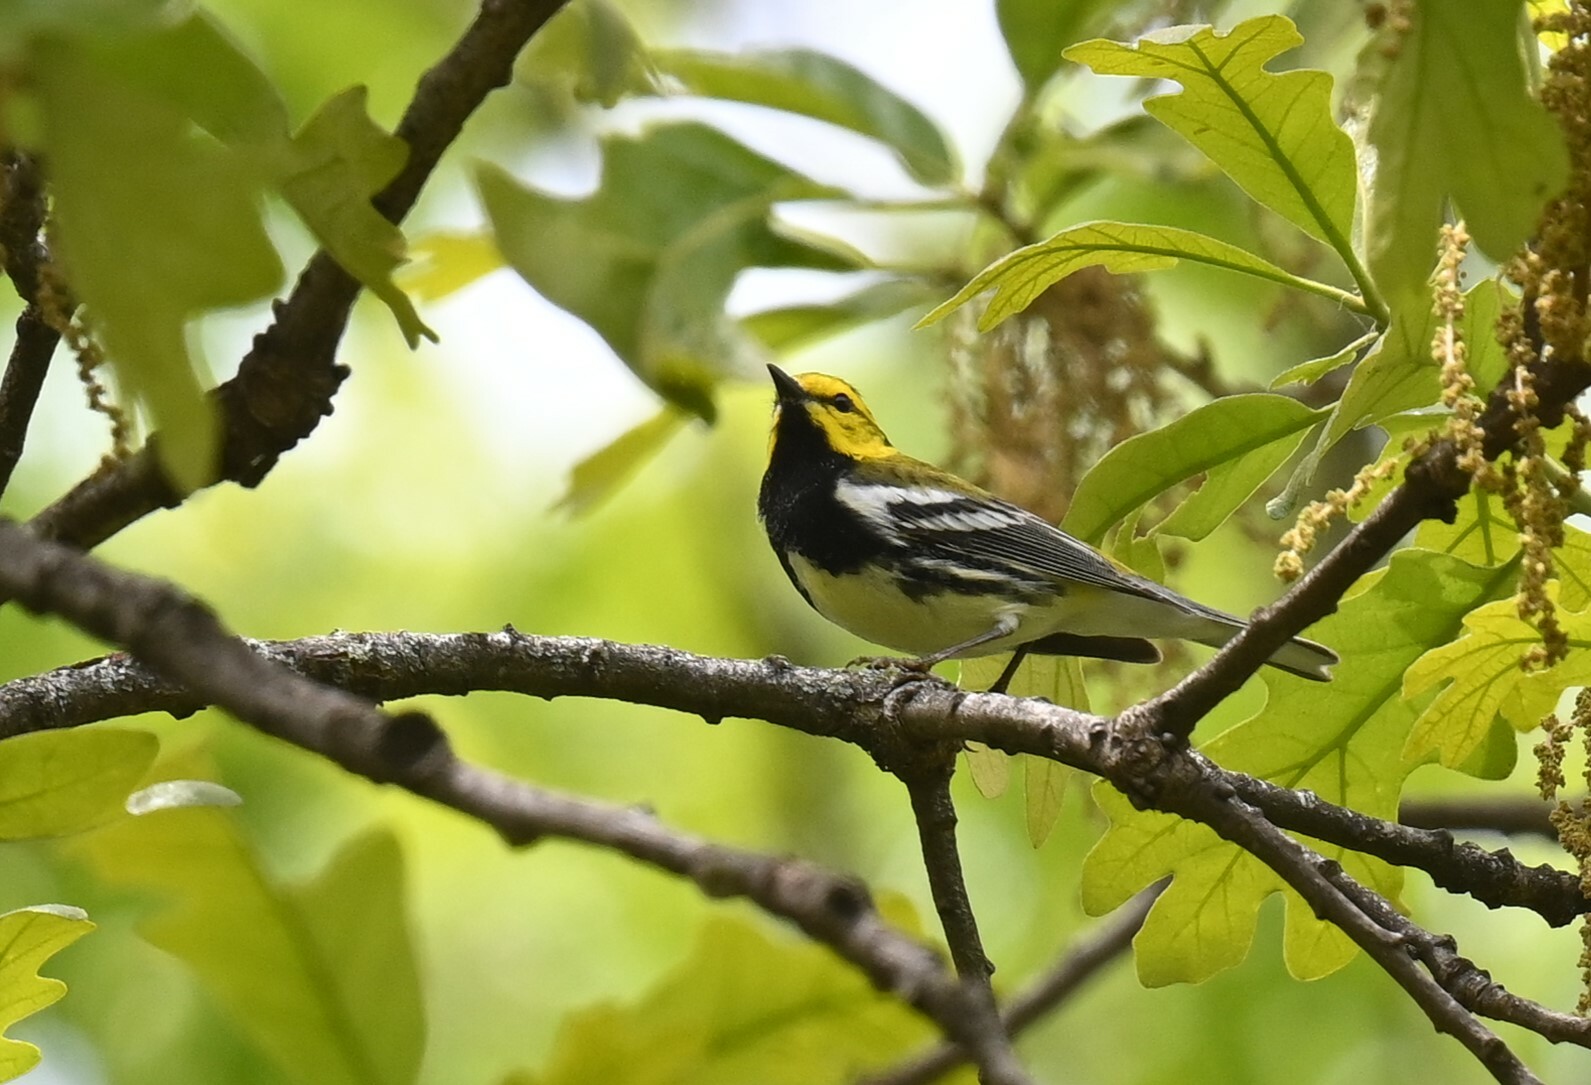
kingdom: Animalia
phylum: Chordata
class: Aves
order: Passeriformes
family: Parulidae
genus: Setophaga
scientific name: Setophaga virens
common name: Black-throated green warbler
